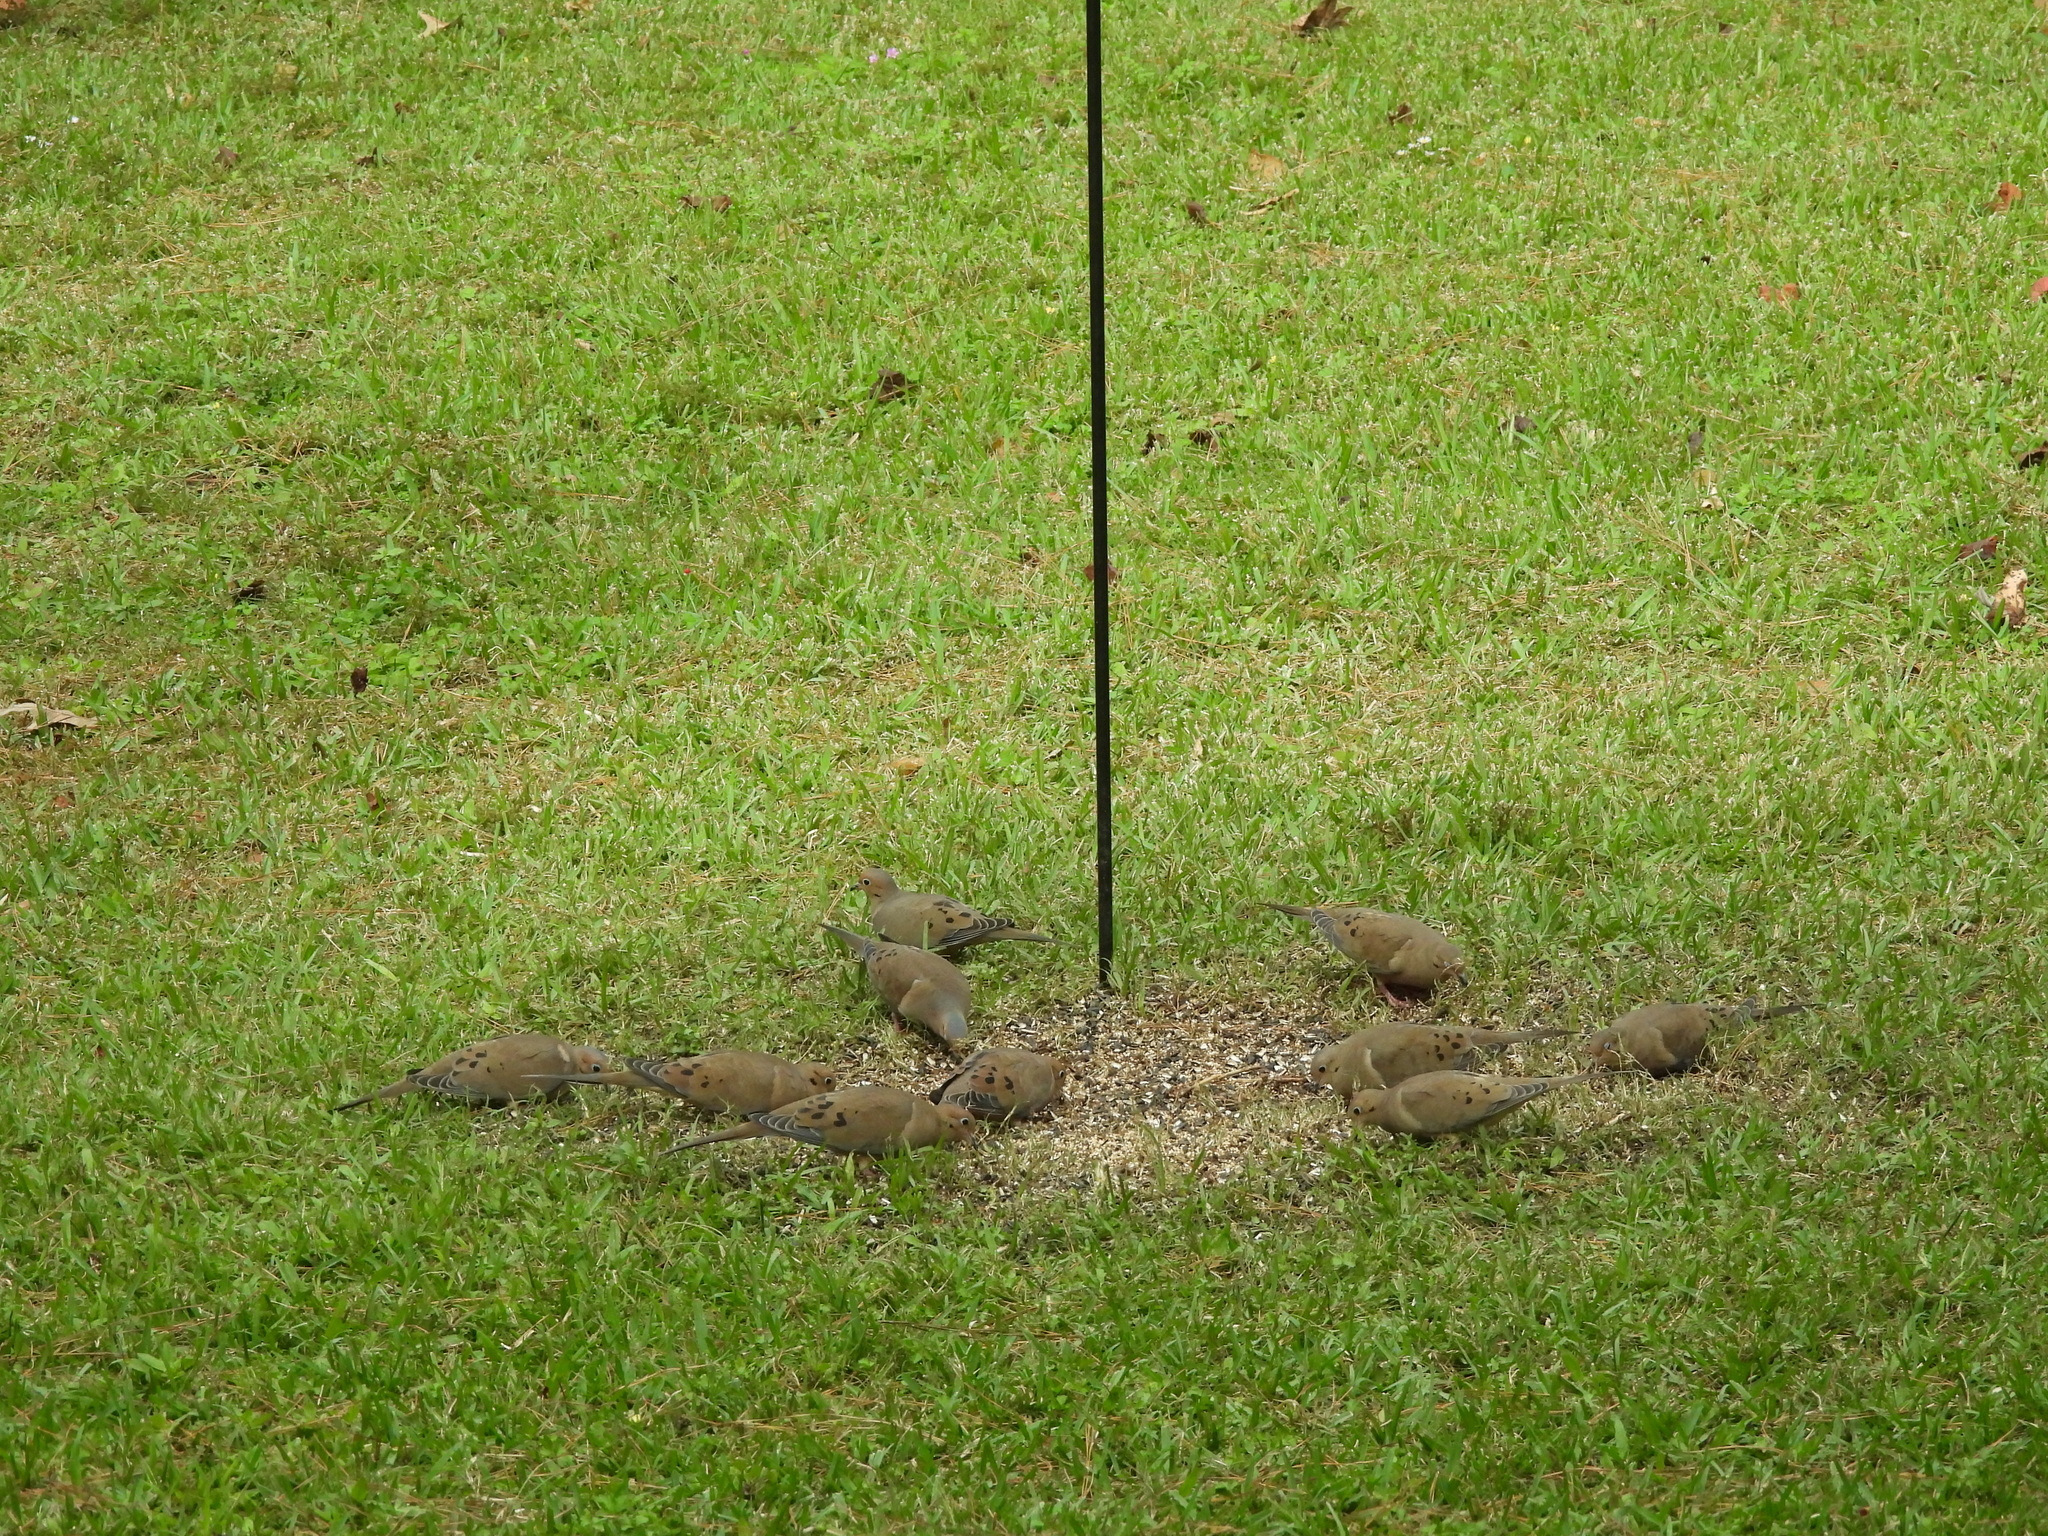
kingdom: Animalia
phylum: Chordata
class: Aves
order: Columbiformes
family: Columbidae
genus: Zenaida
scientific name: Zenaida macroura
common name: Mourning dove
